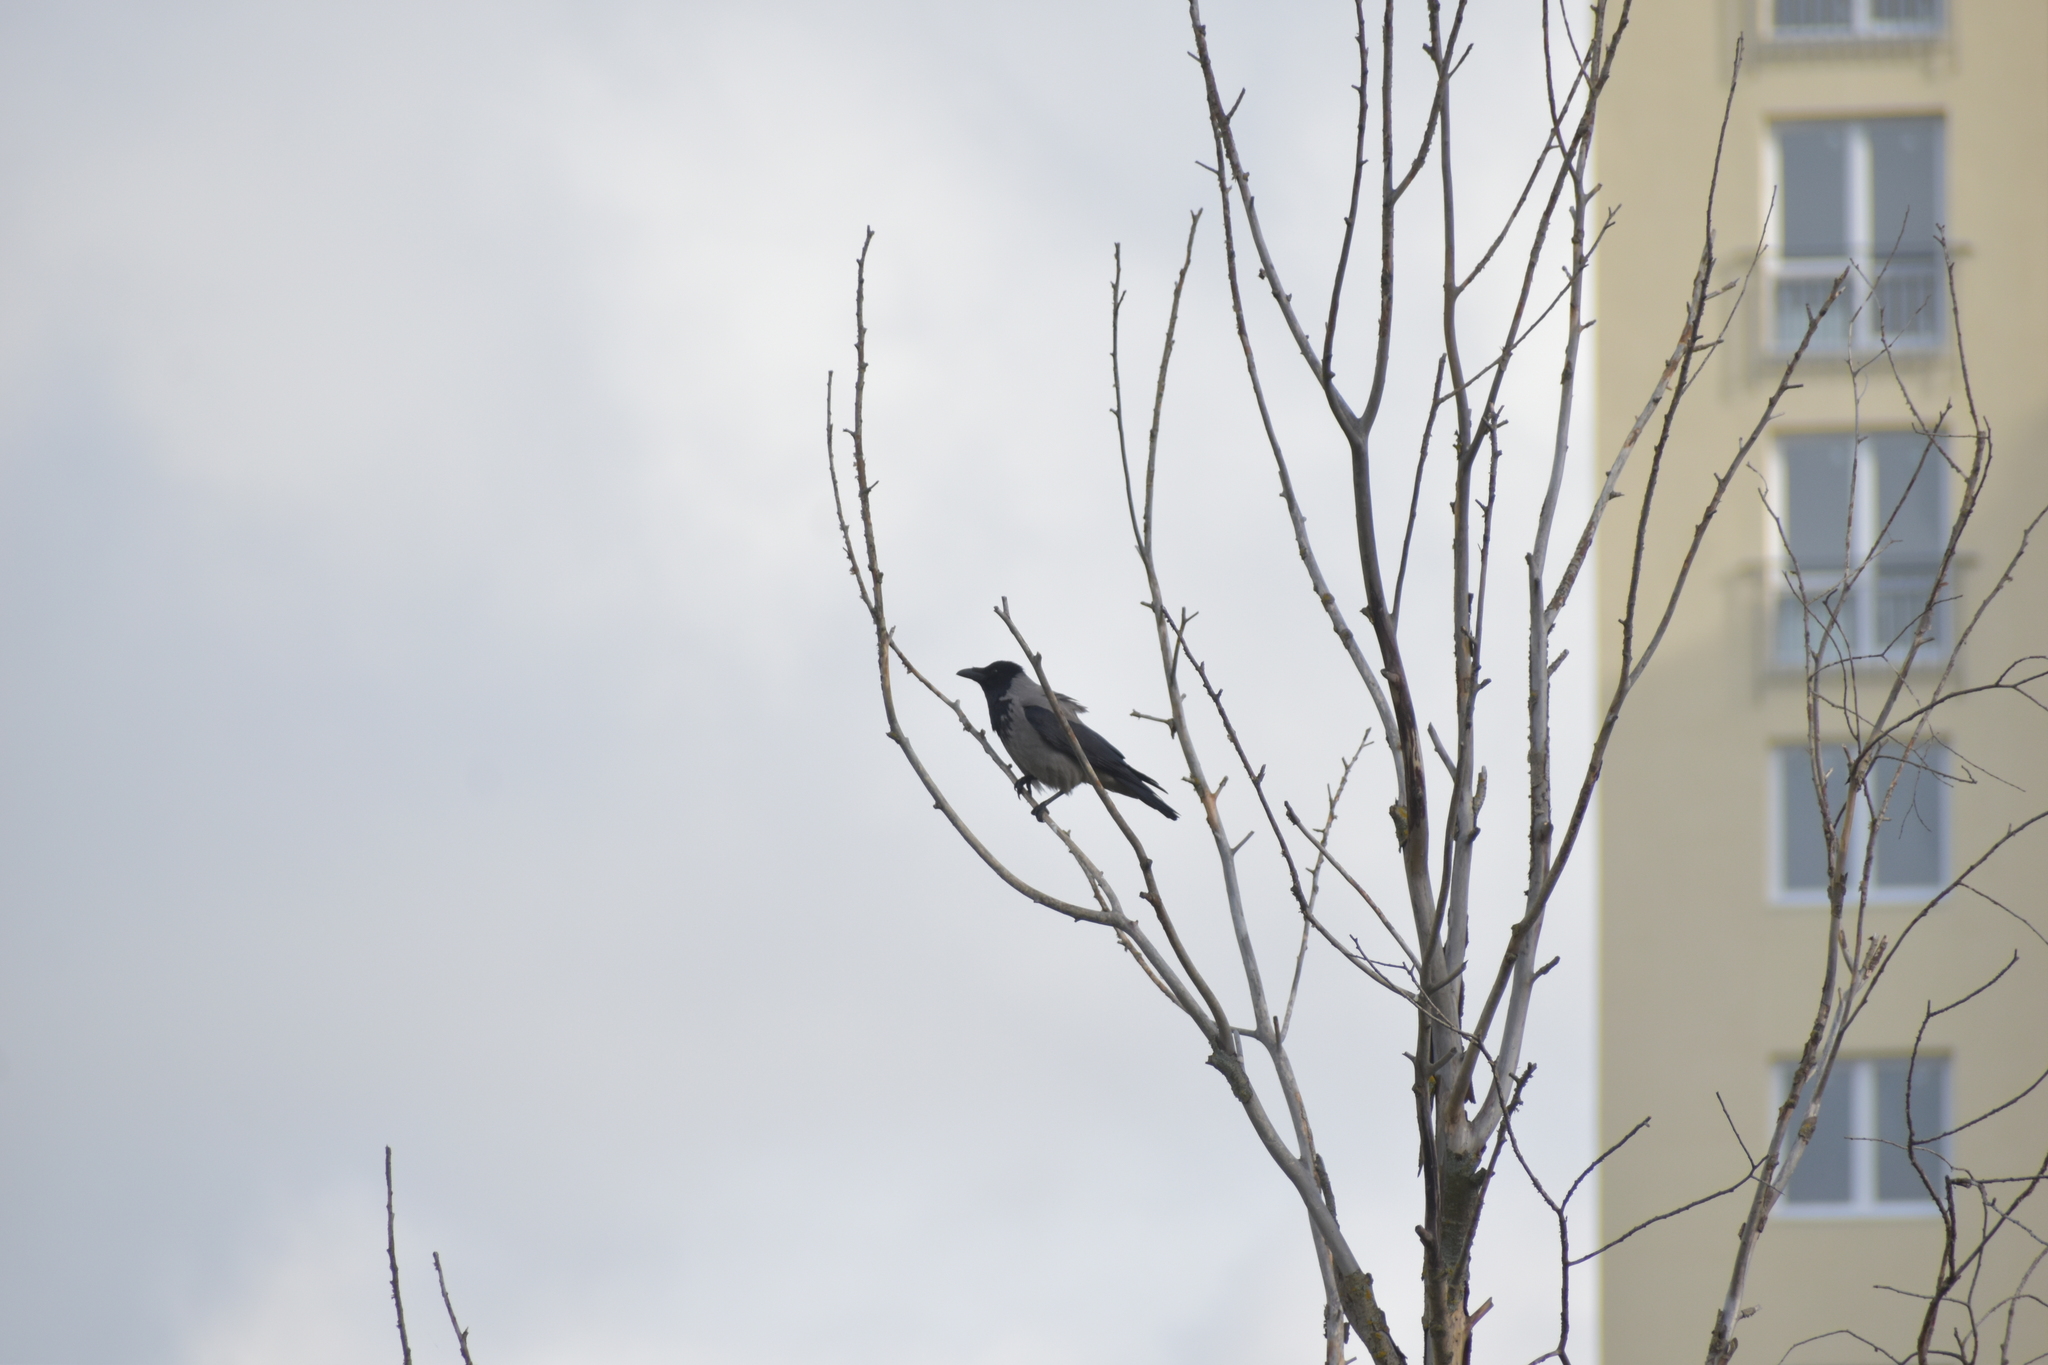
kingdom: Animalia
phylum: Chordata
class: Aves
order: Passeriformes
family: Corvidae
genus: Corvus
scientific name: Corvus cornix
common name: Hooded crow
